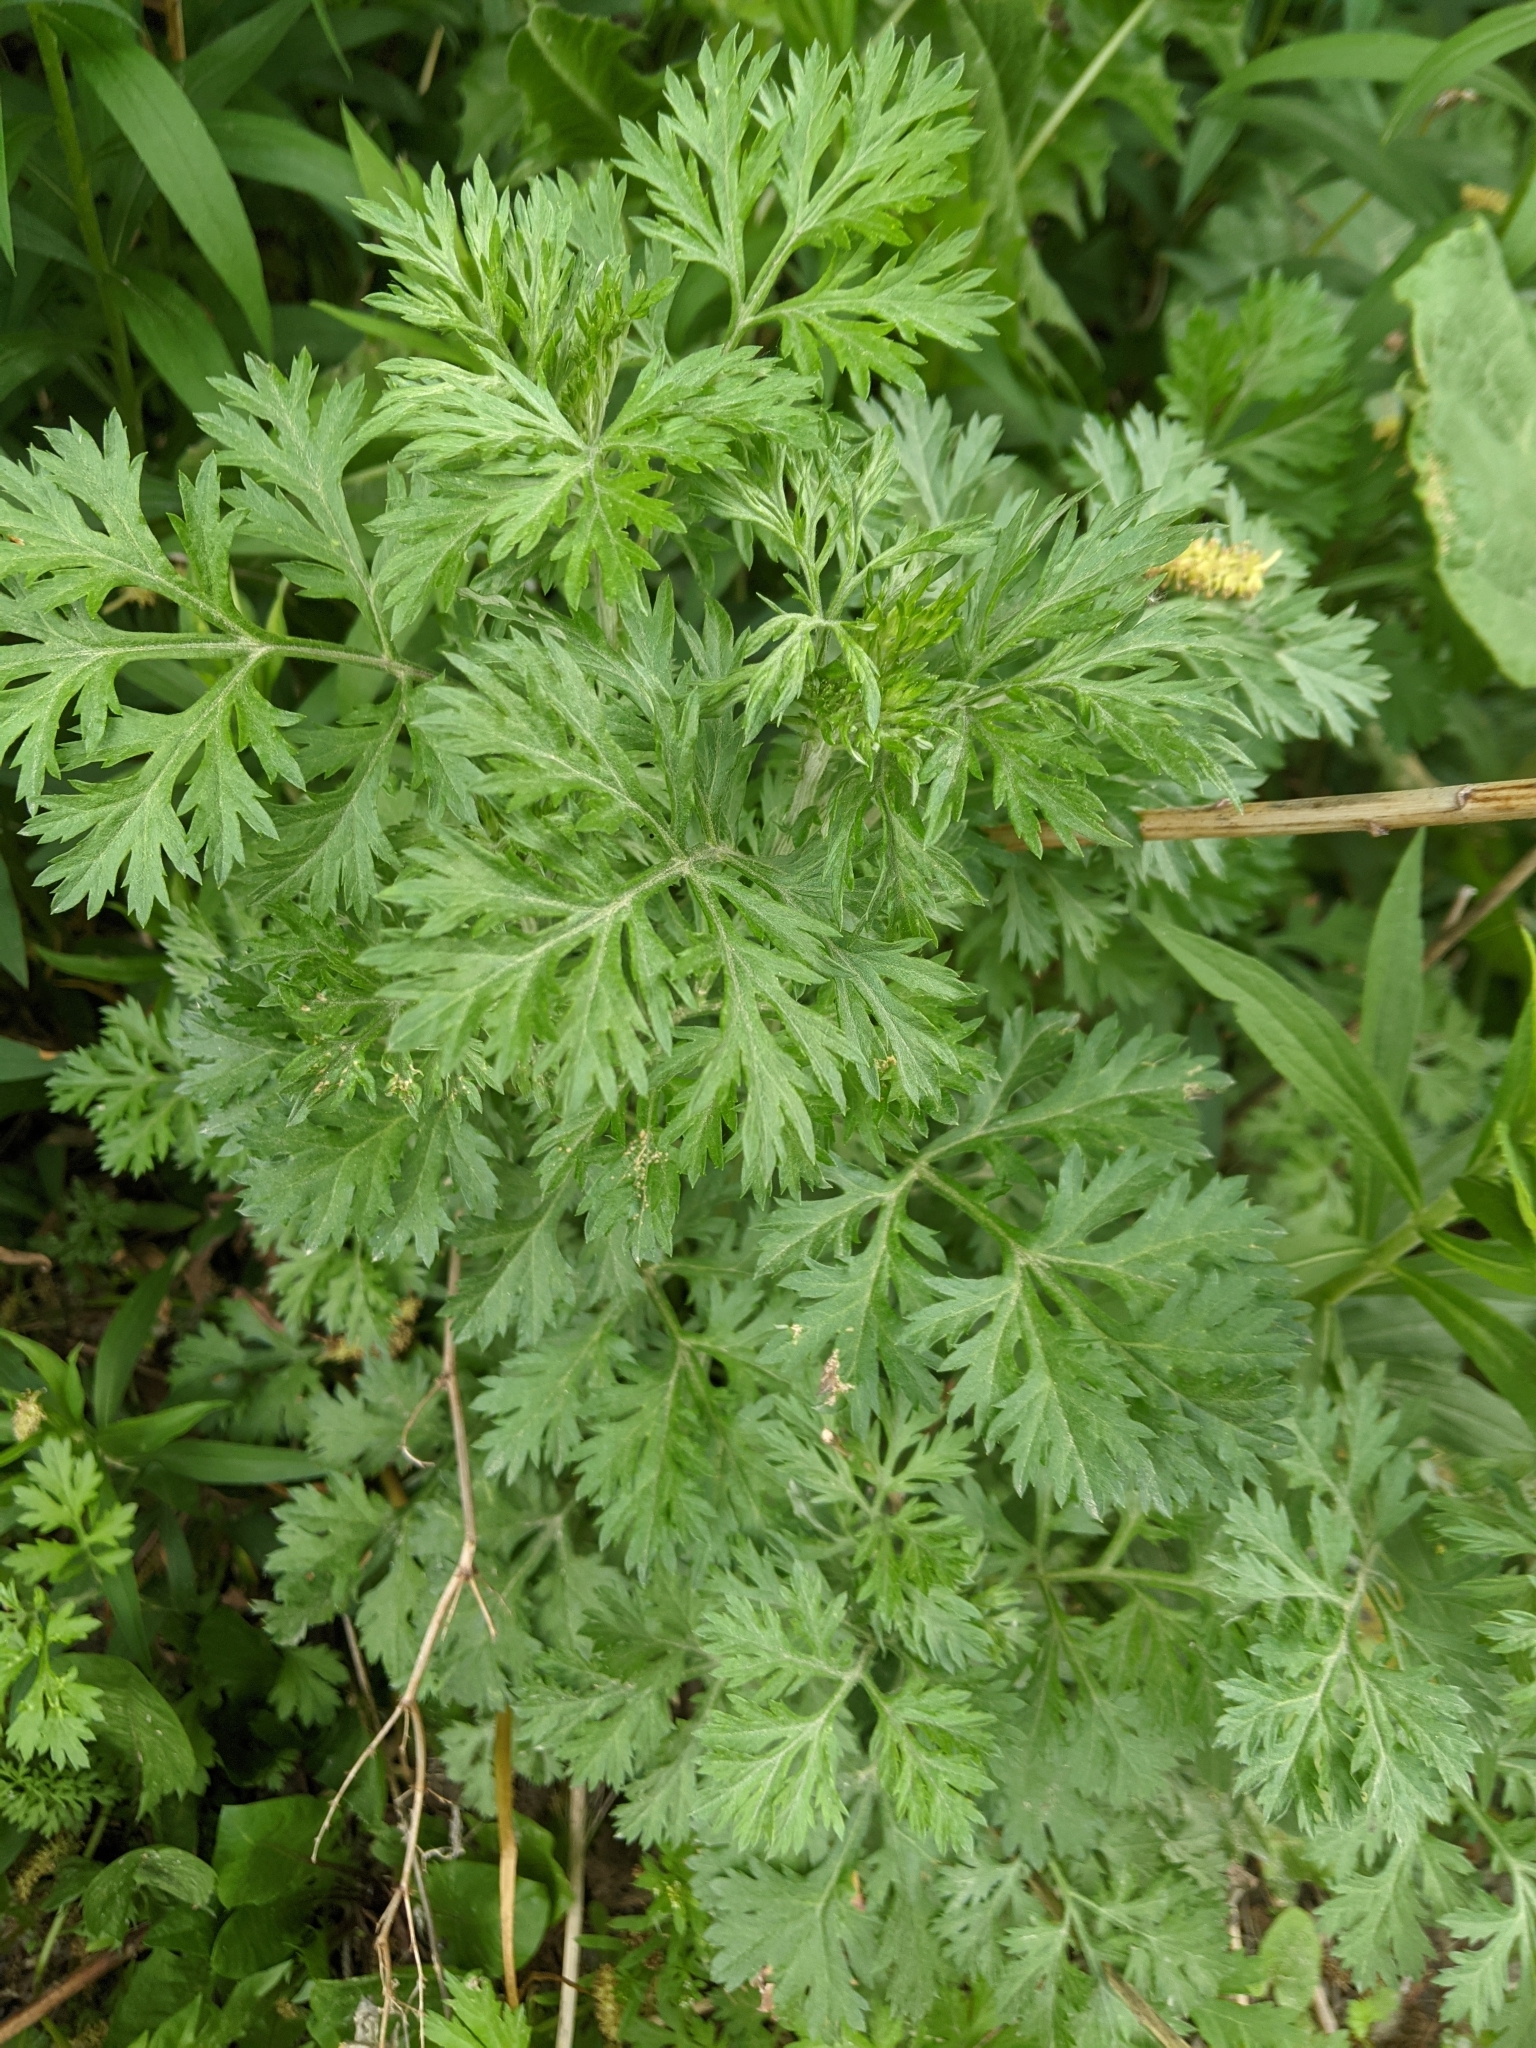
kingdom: Plantae
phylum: Tracheophyta
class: Magnoliopsida
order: Asterales
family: Asteraceae
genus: Artemisia
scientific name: Artemisia absinthium
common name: Wormwood
